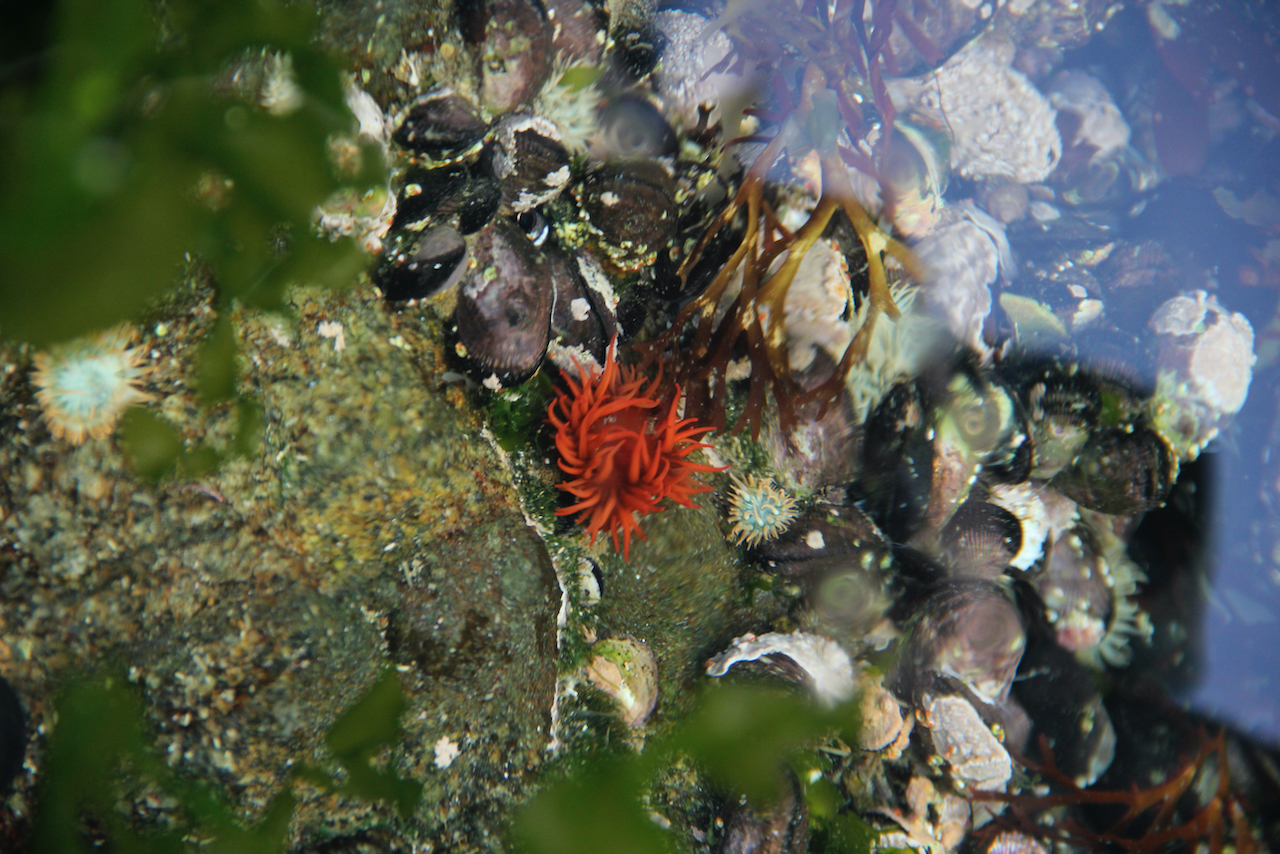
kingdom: Animalia
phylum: Mollusca
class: Bivalvia
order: Mytilida
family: Mytilidae
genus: Perumytilus
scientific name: Perumytilus purpuratus
